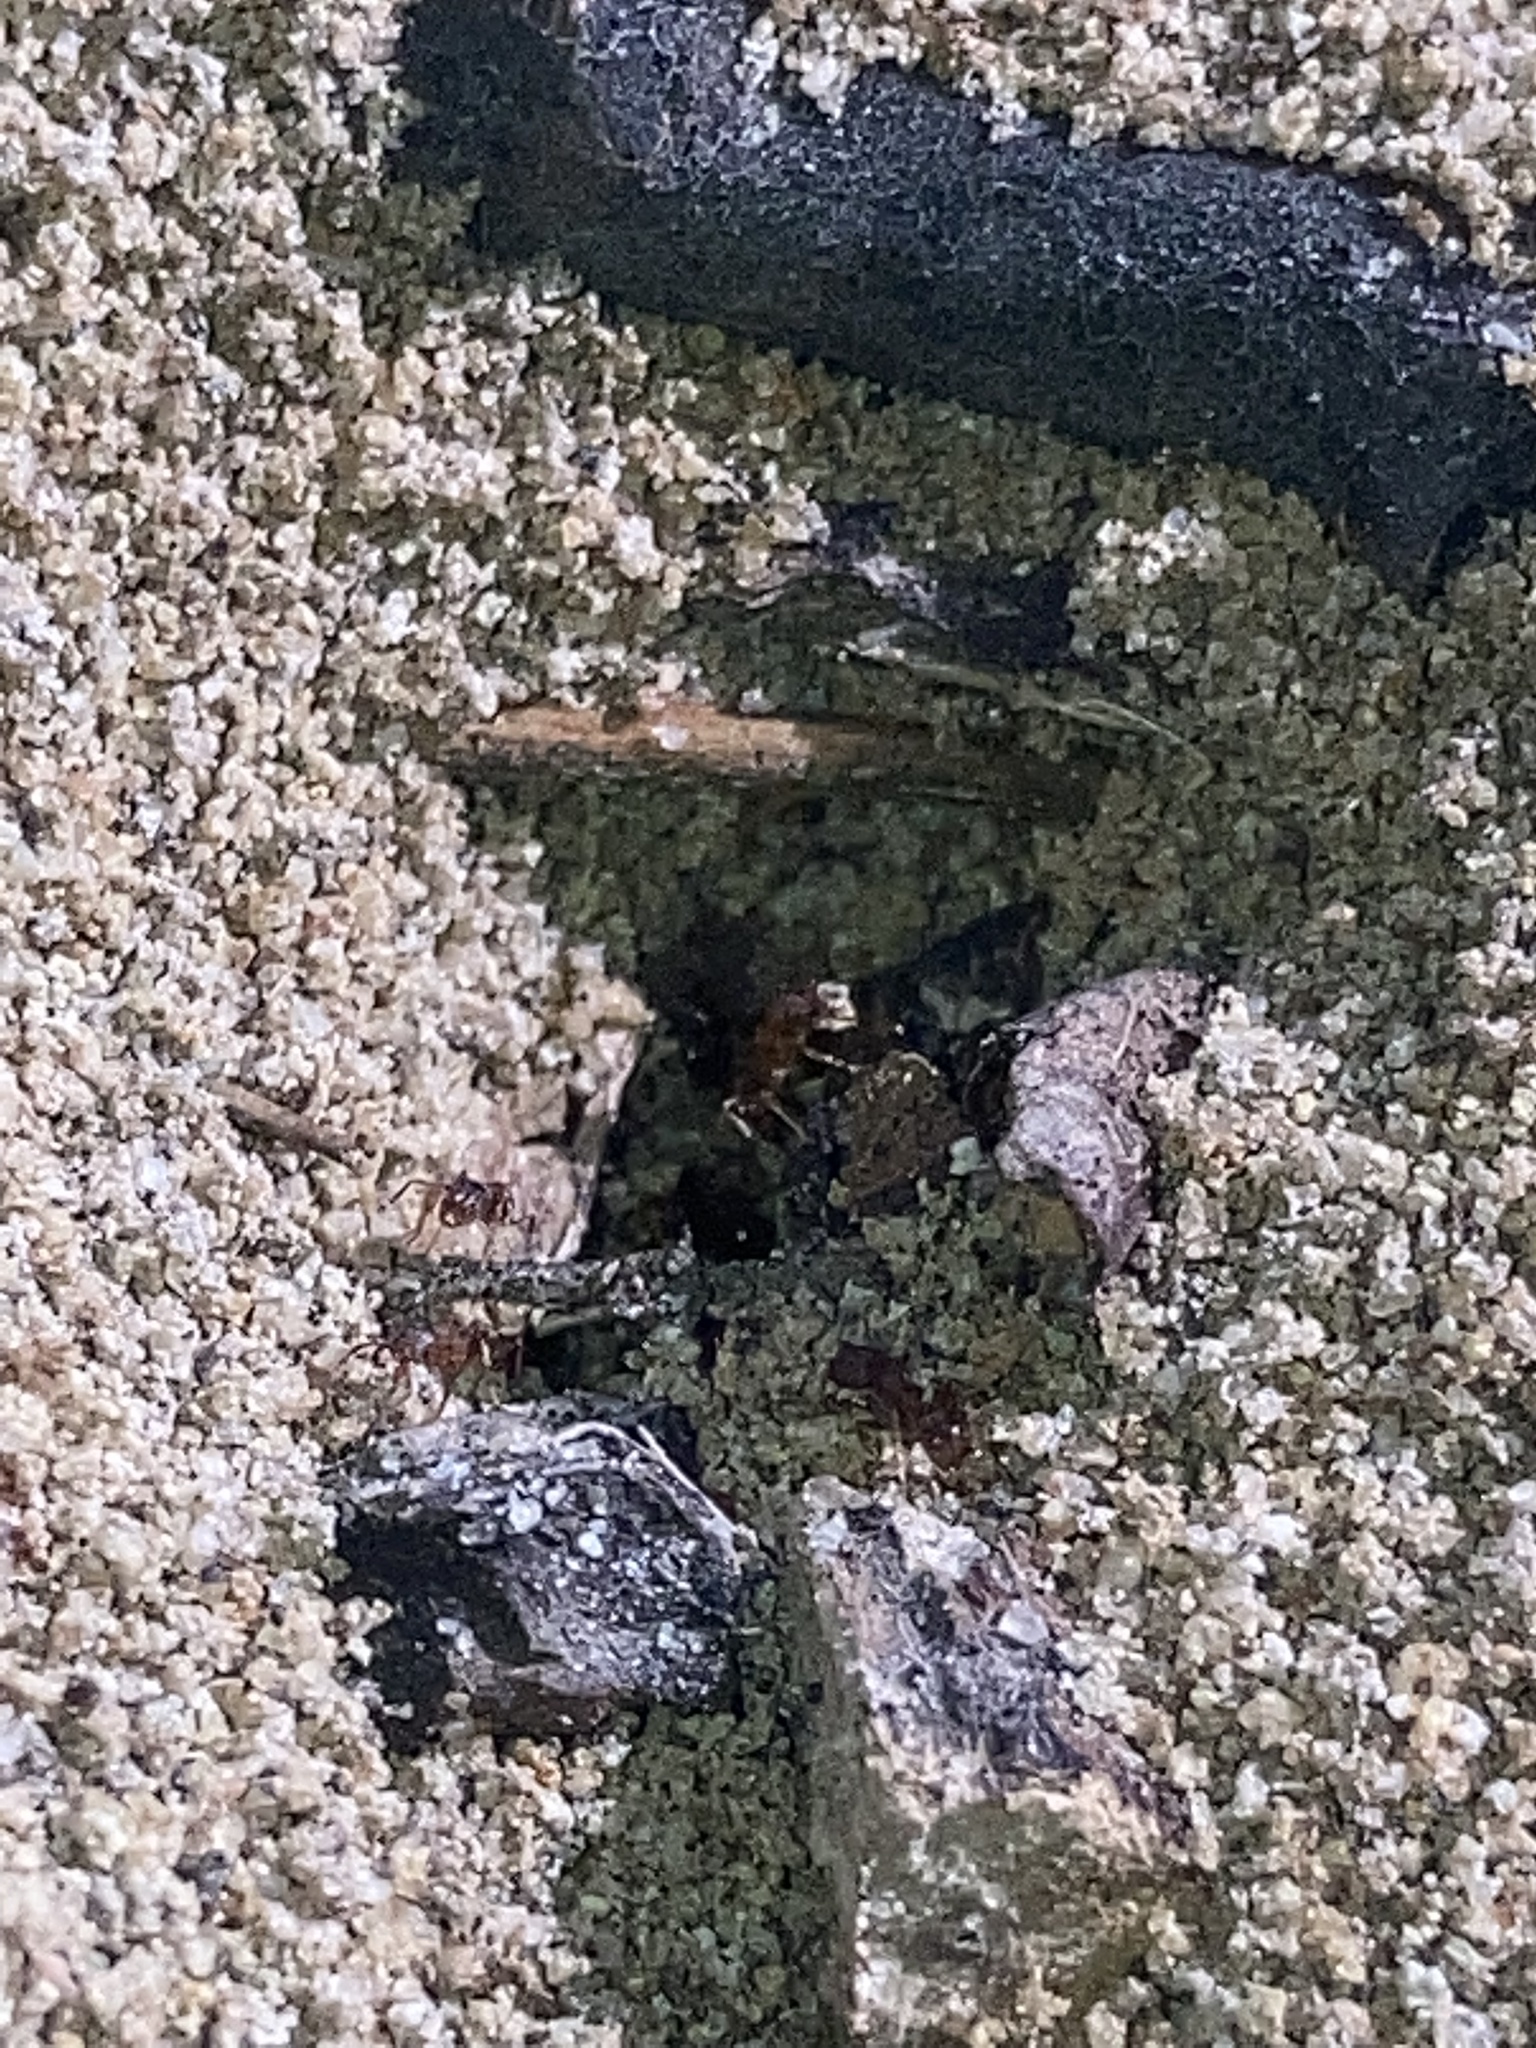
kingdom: Animalia
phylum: Arthropoda
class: Insecta
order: Hymenoptera
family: Formicidae
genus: Pheidole
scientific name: Pheidole pilifera
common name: Hairy big-headed ant
